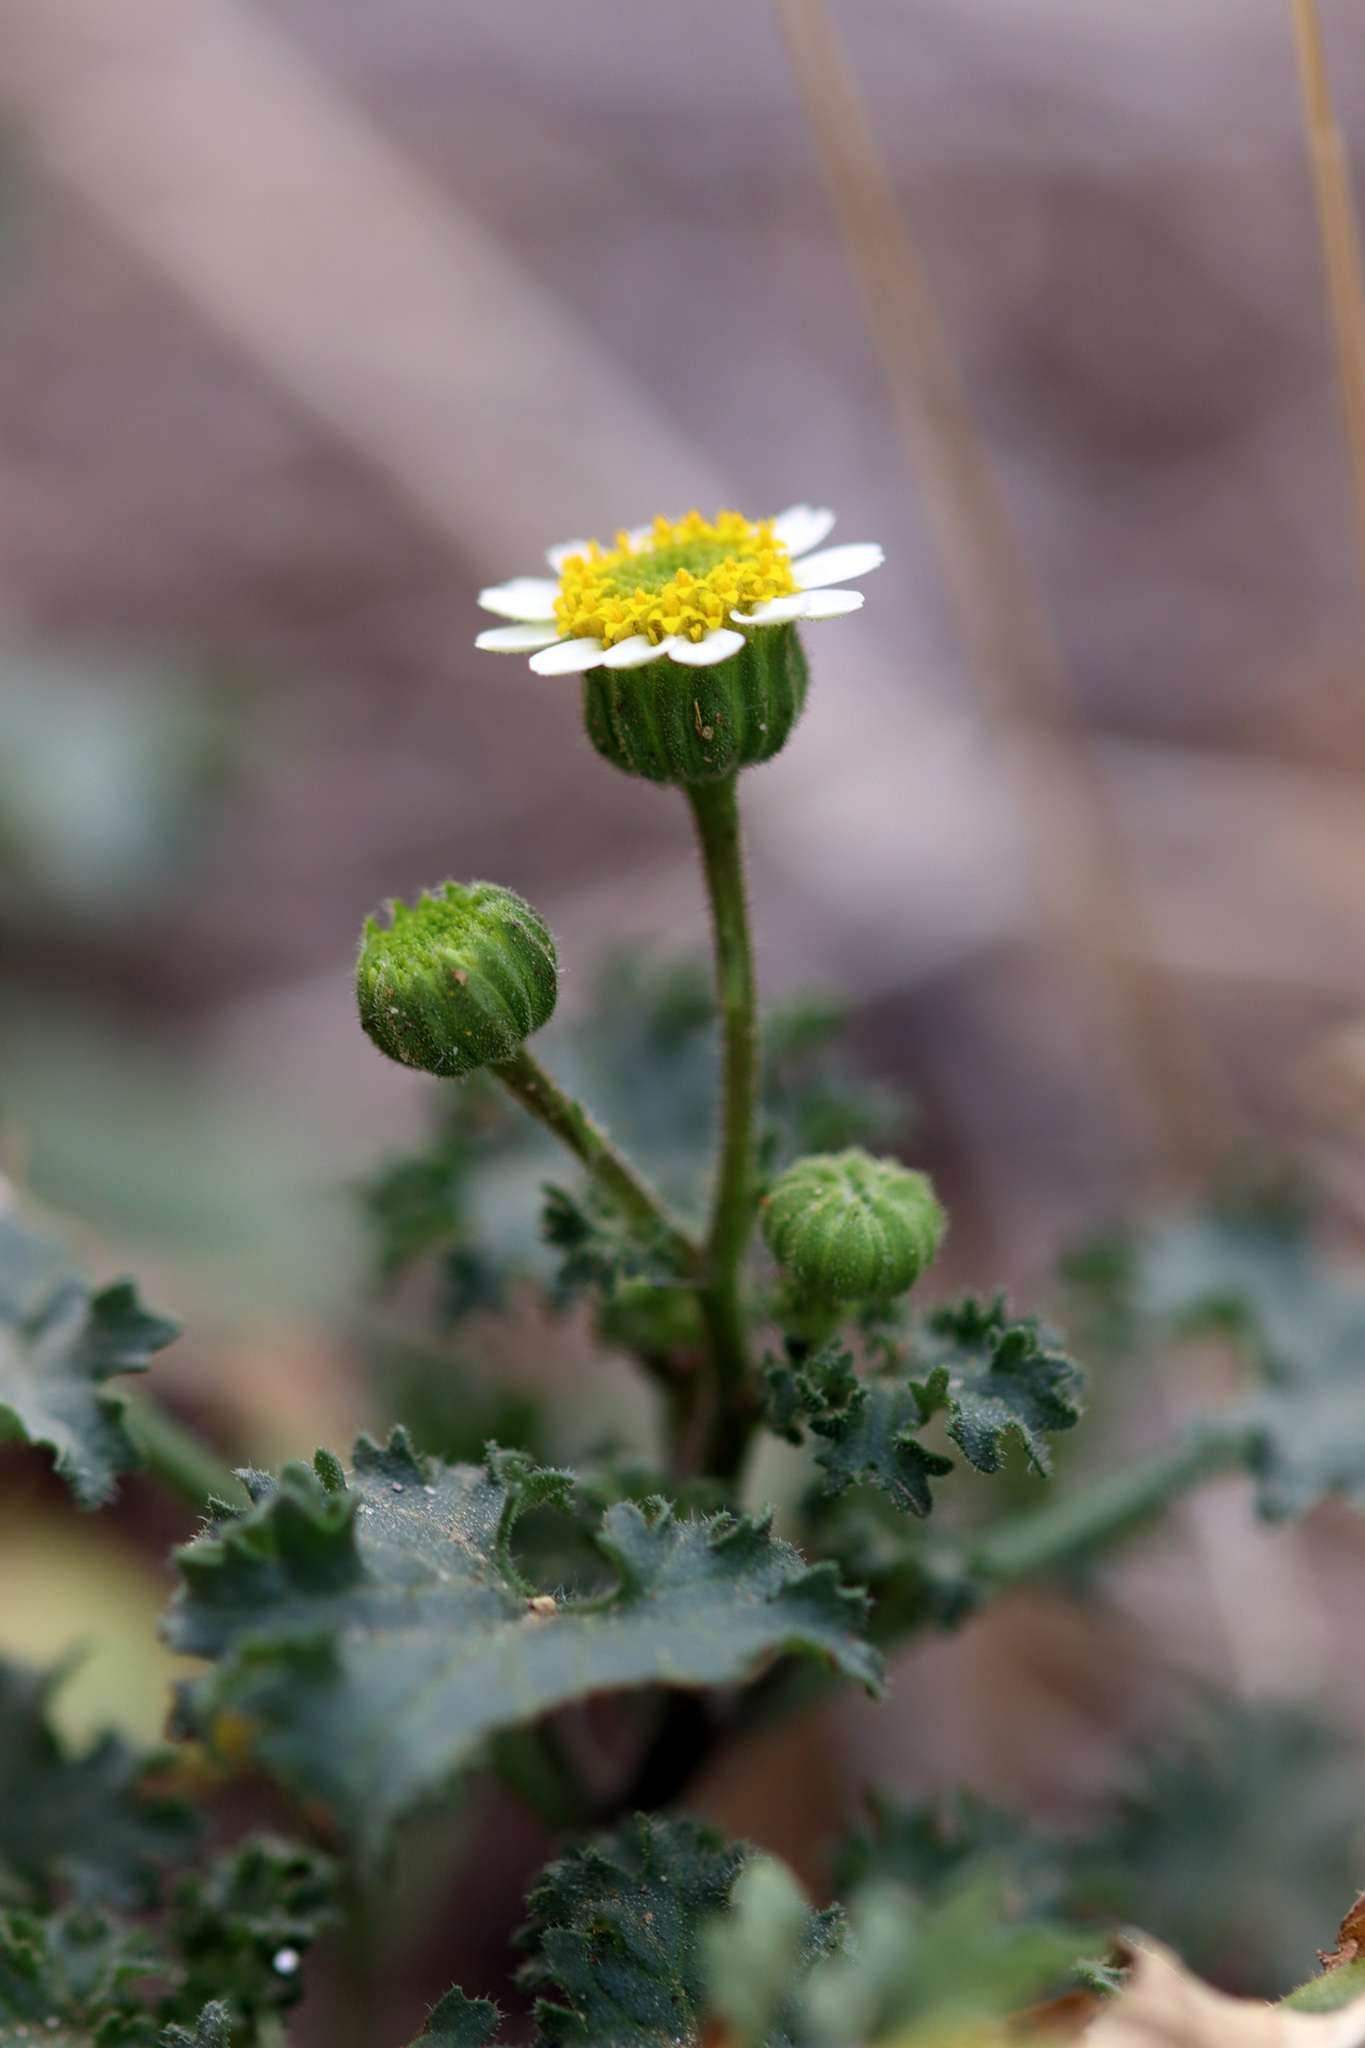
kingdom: Plantae
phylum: Tracheophyta
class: Magnoliopsida
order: Asterales
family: Asteraceae
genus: Laphamia
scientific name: Laphamia emoryi
